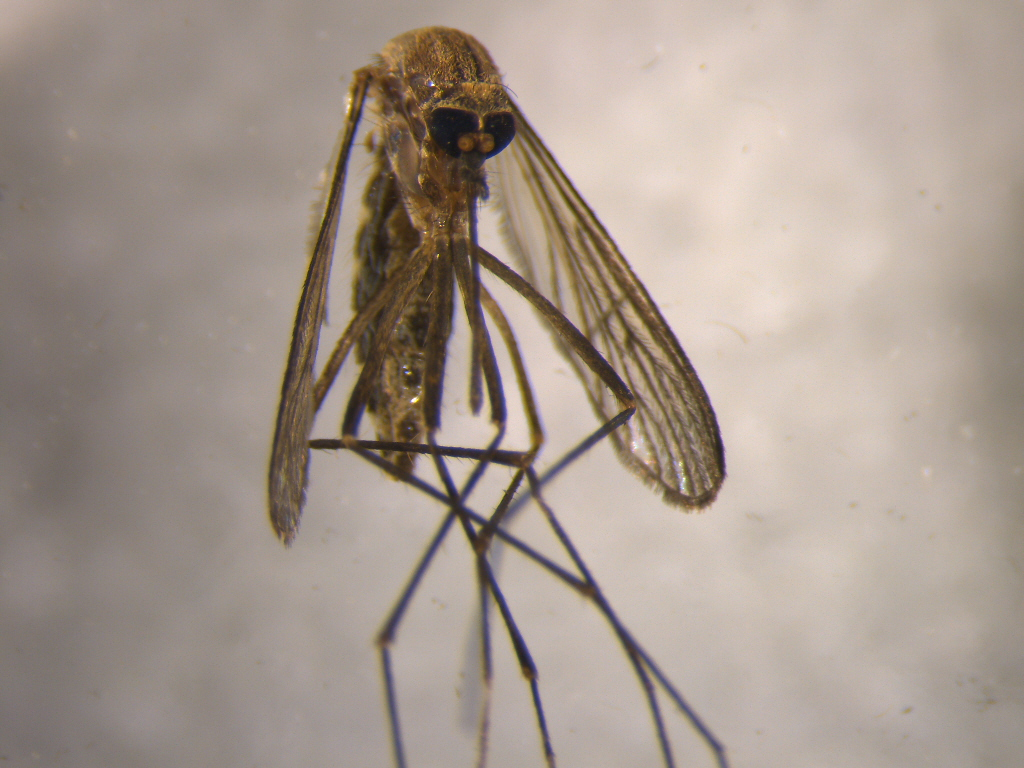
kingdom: Animalia
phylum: Arthropoda
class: Insecta
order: Diptera
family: Culicidae
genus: Culex
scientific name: Culex pervigilans
